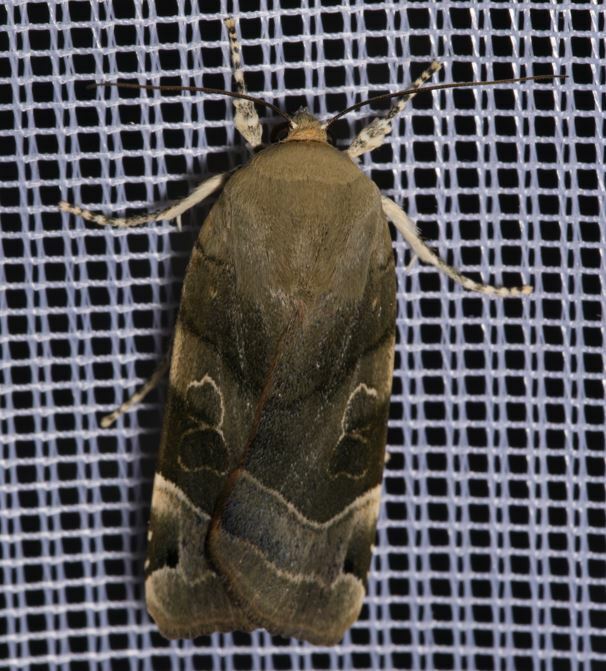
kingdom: Animalia
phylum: Arthropoda
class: Insecta
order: Lepidoptera
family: Noctuidae
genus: Noctua
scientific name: Noctua fimbriata
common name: Broad-bordered yellow underwing
